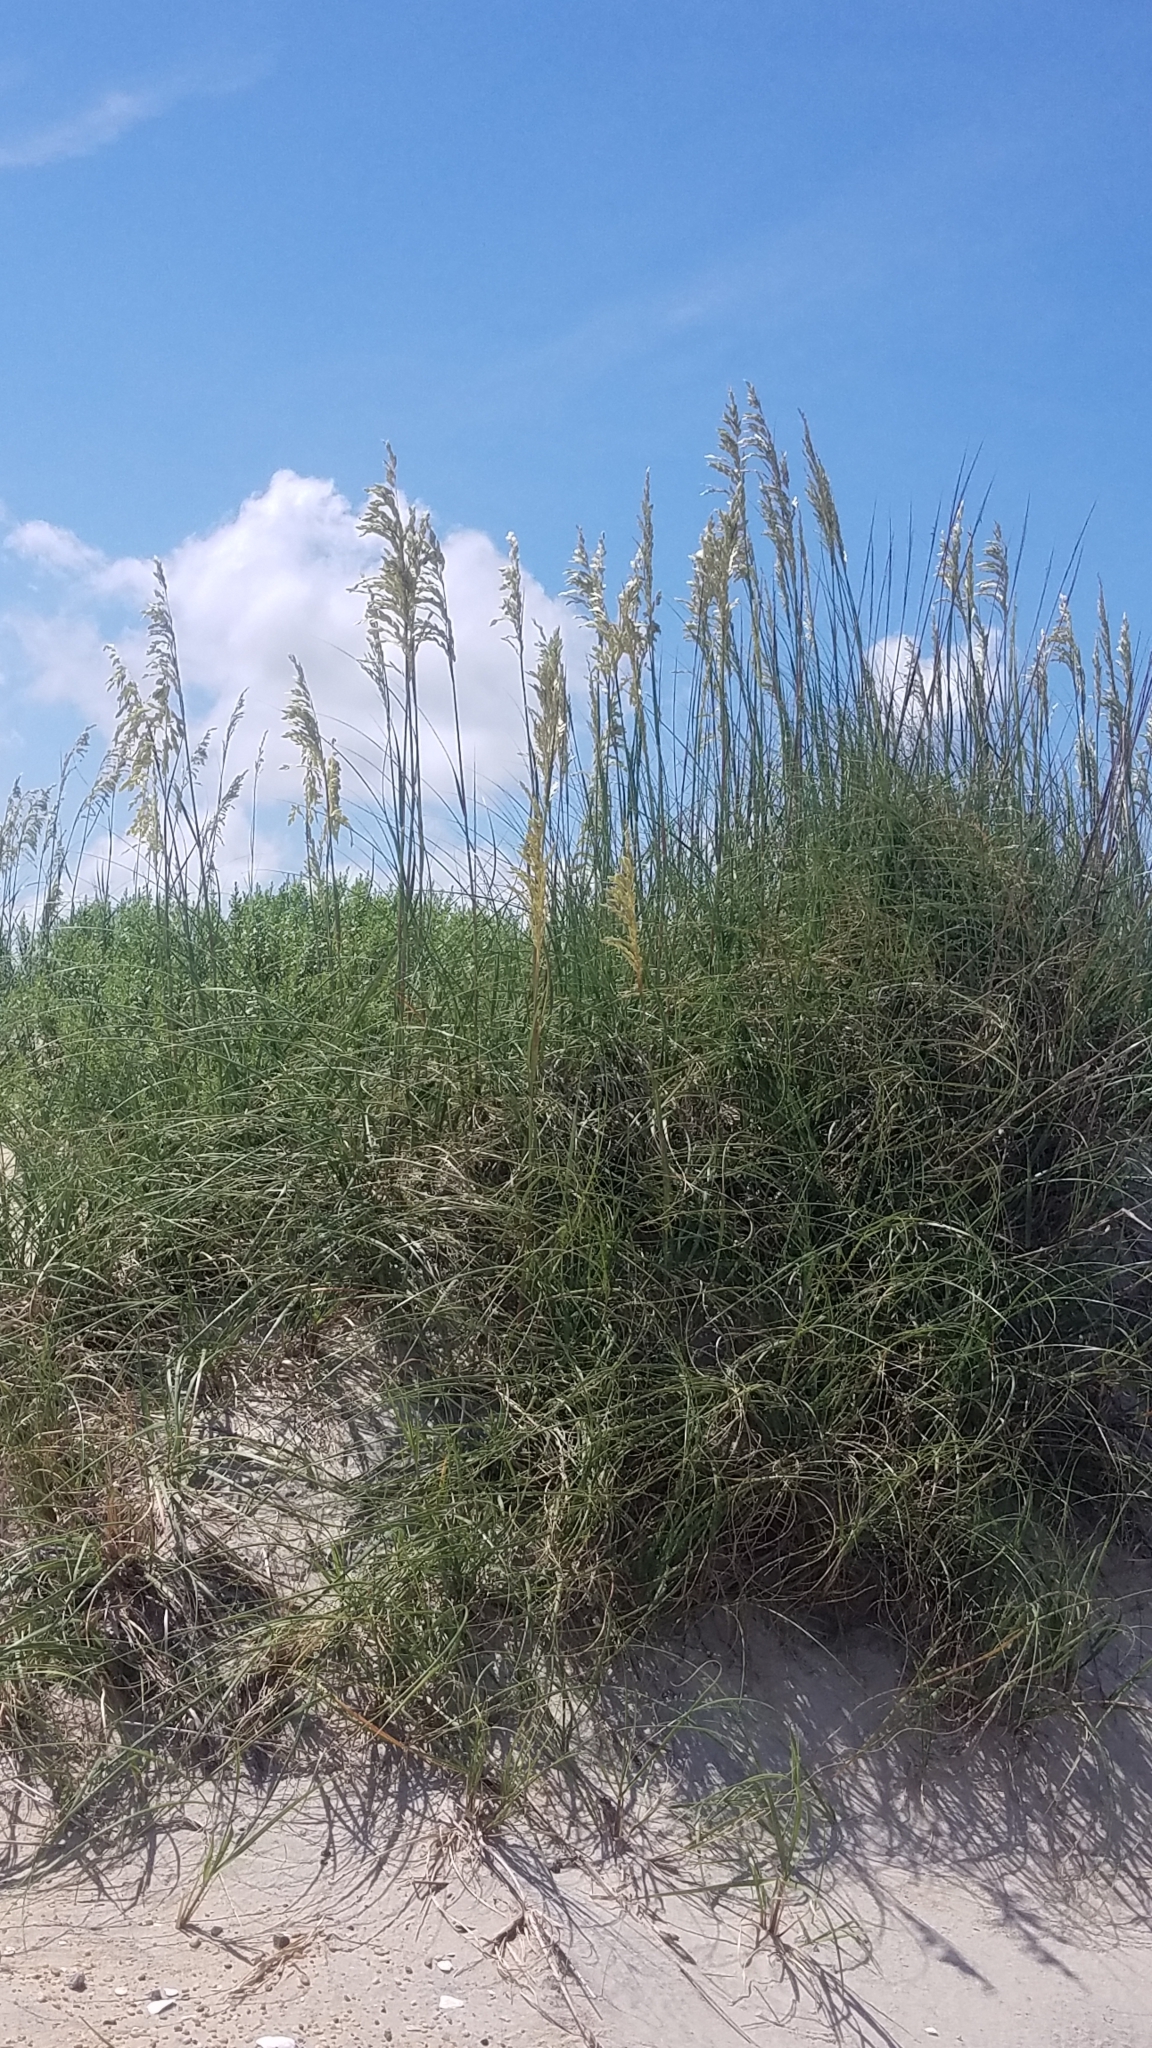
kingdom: Plantae
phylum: Tracheophyta
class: Liliopsida
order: Poales
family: Poaceae
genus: Uniola
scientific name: Uniola paniculata
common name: Seaside-oats
